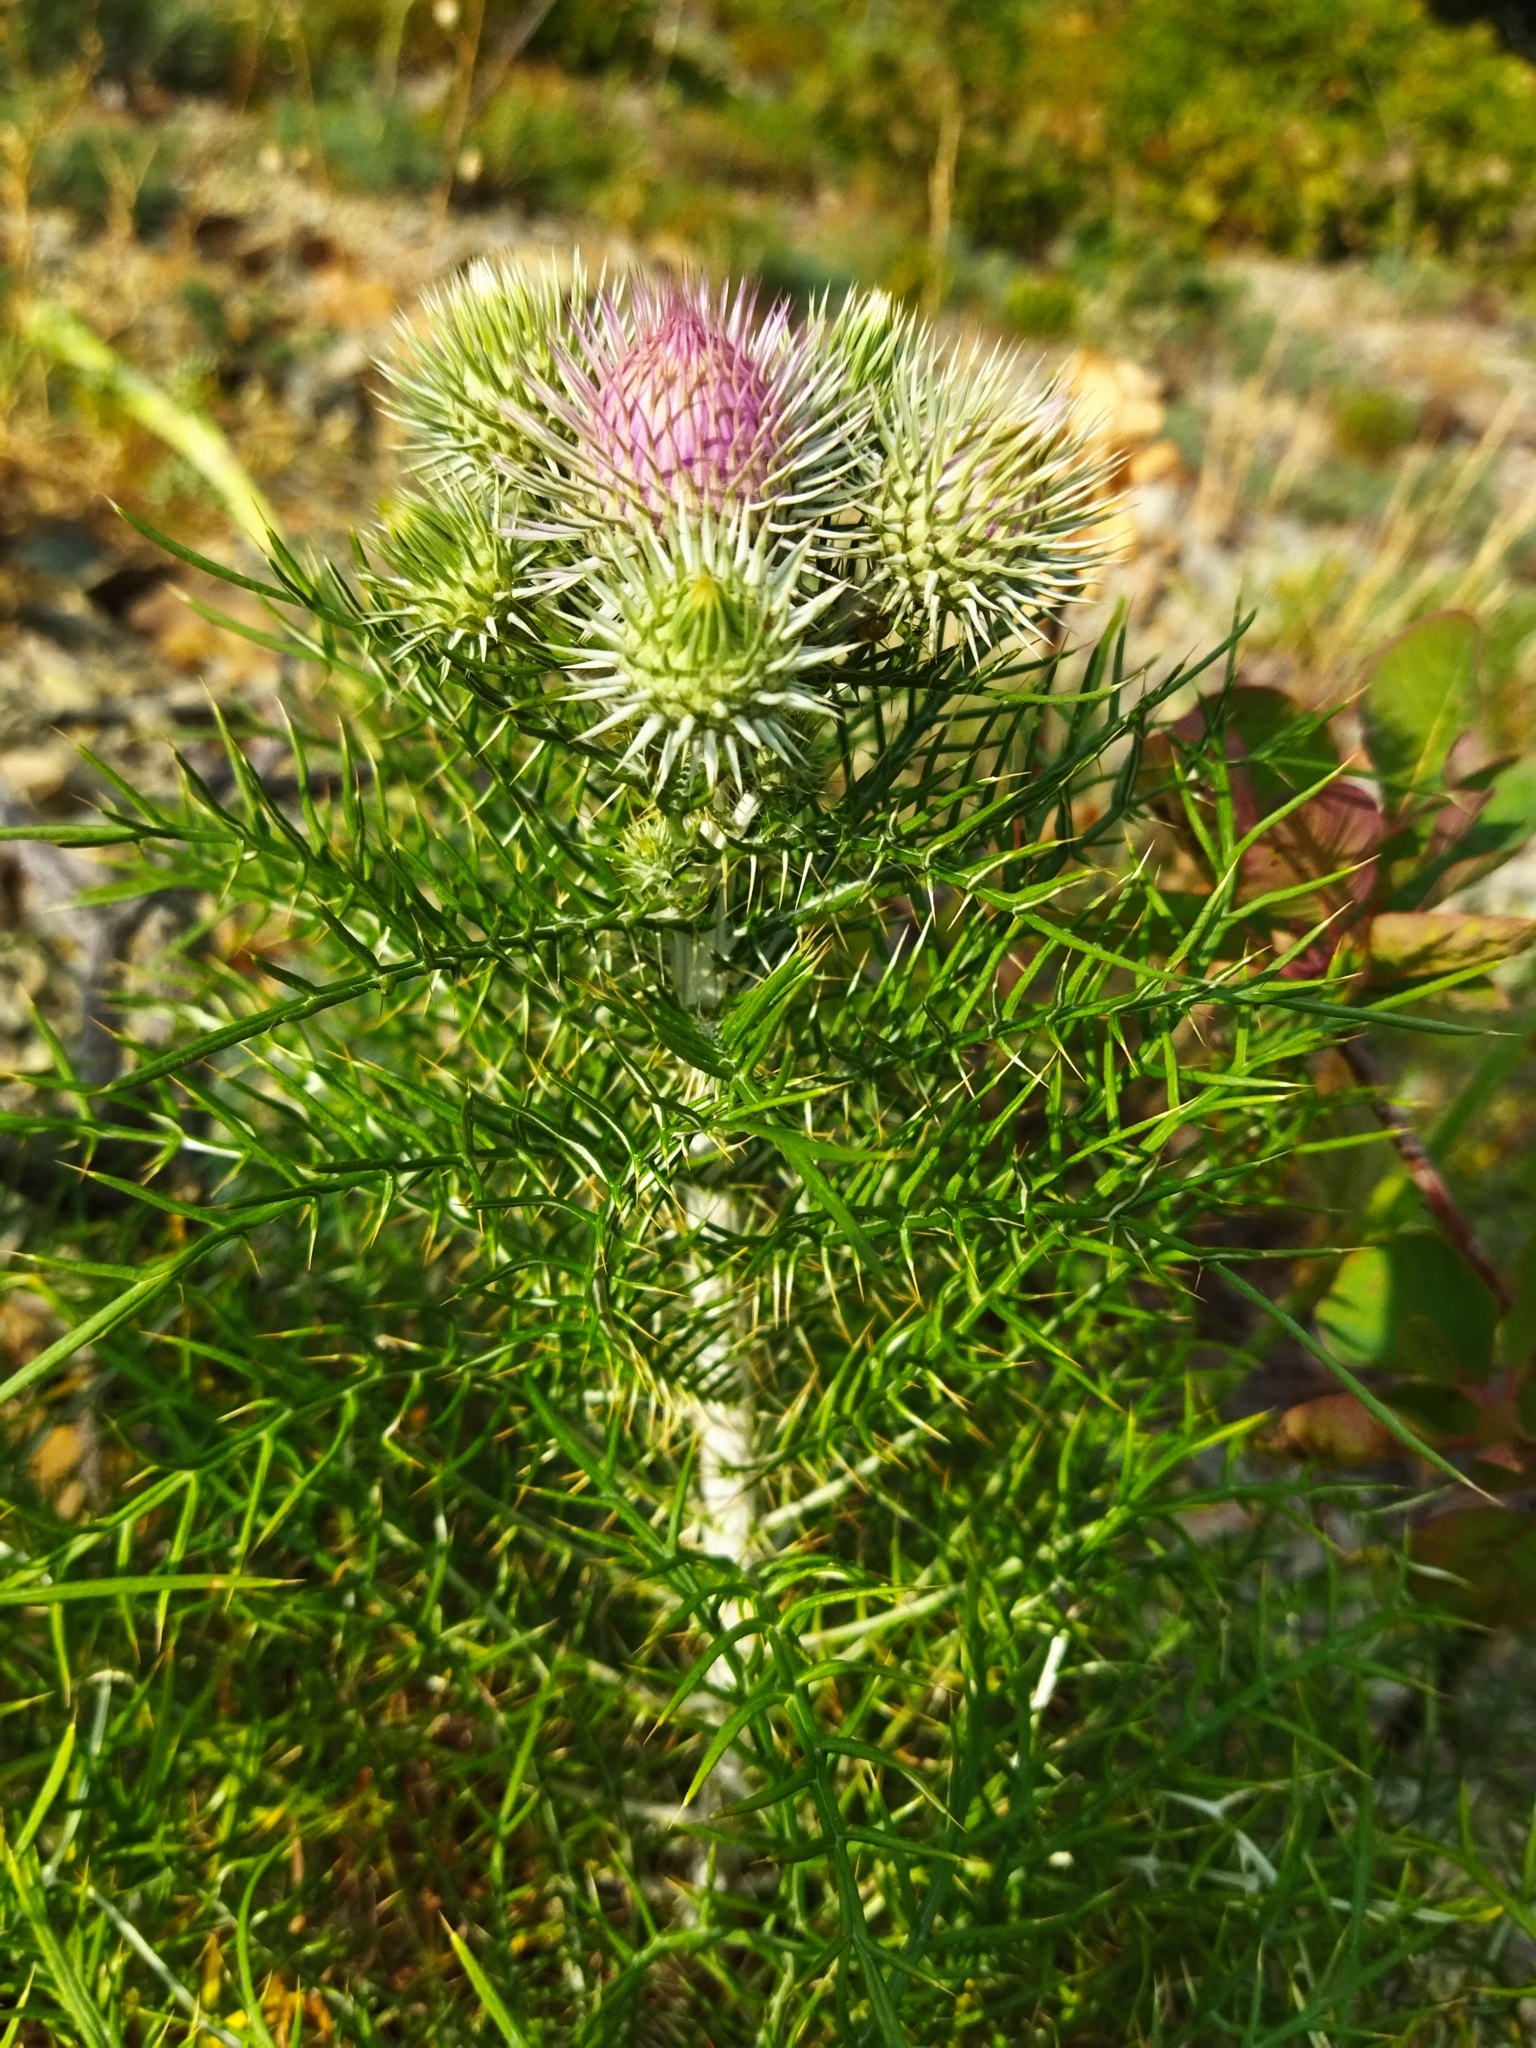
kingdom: Plantae
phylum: Tracheophyta
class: Magnoliopsida
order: Asterales
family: Asteraceae
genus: Ptilostemon
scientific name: Ptilostemon echinocephalus
